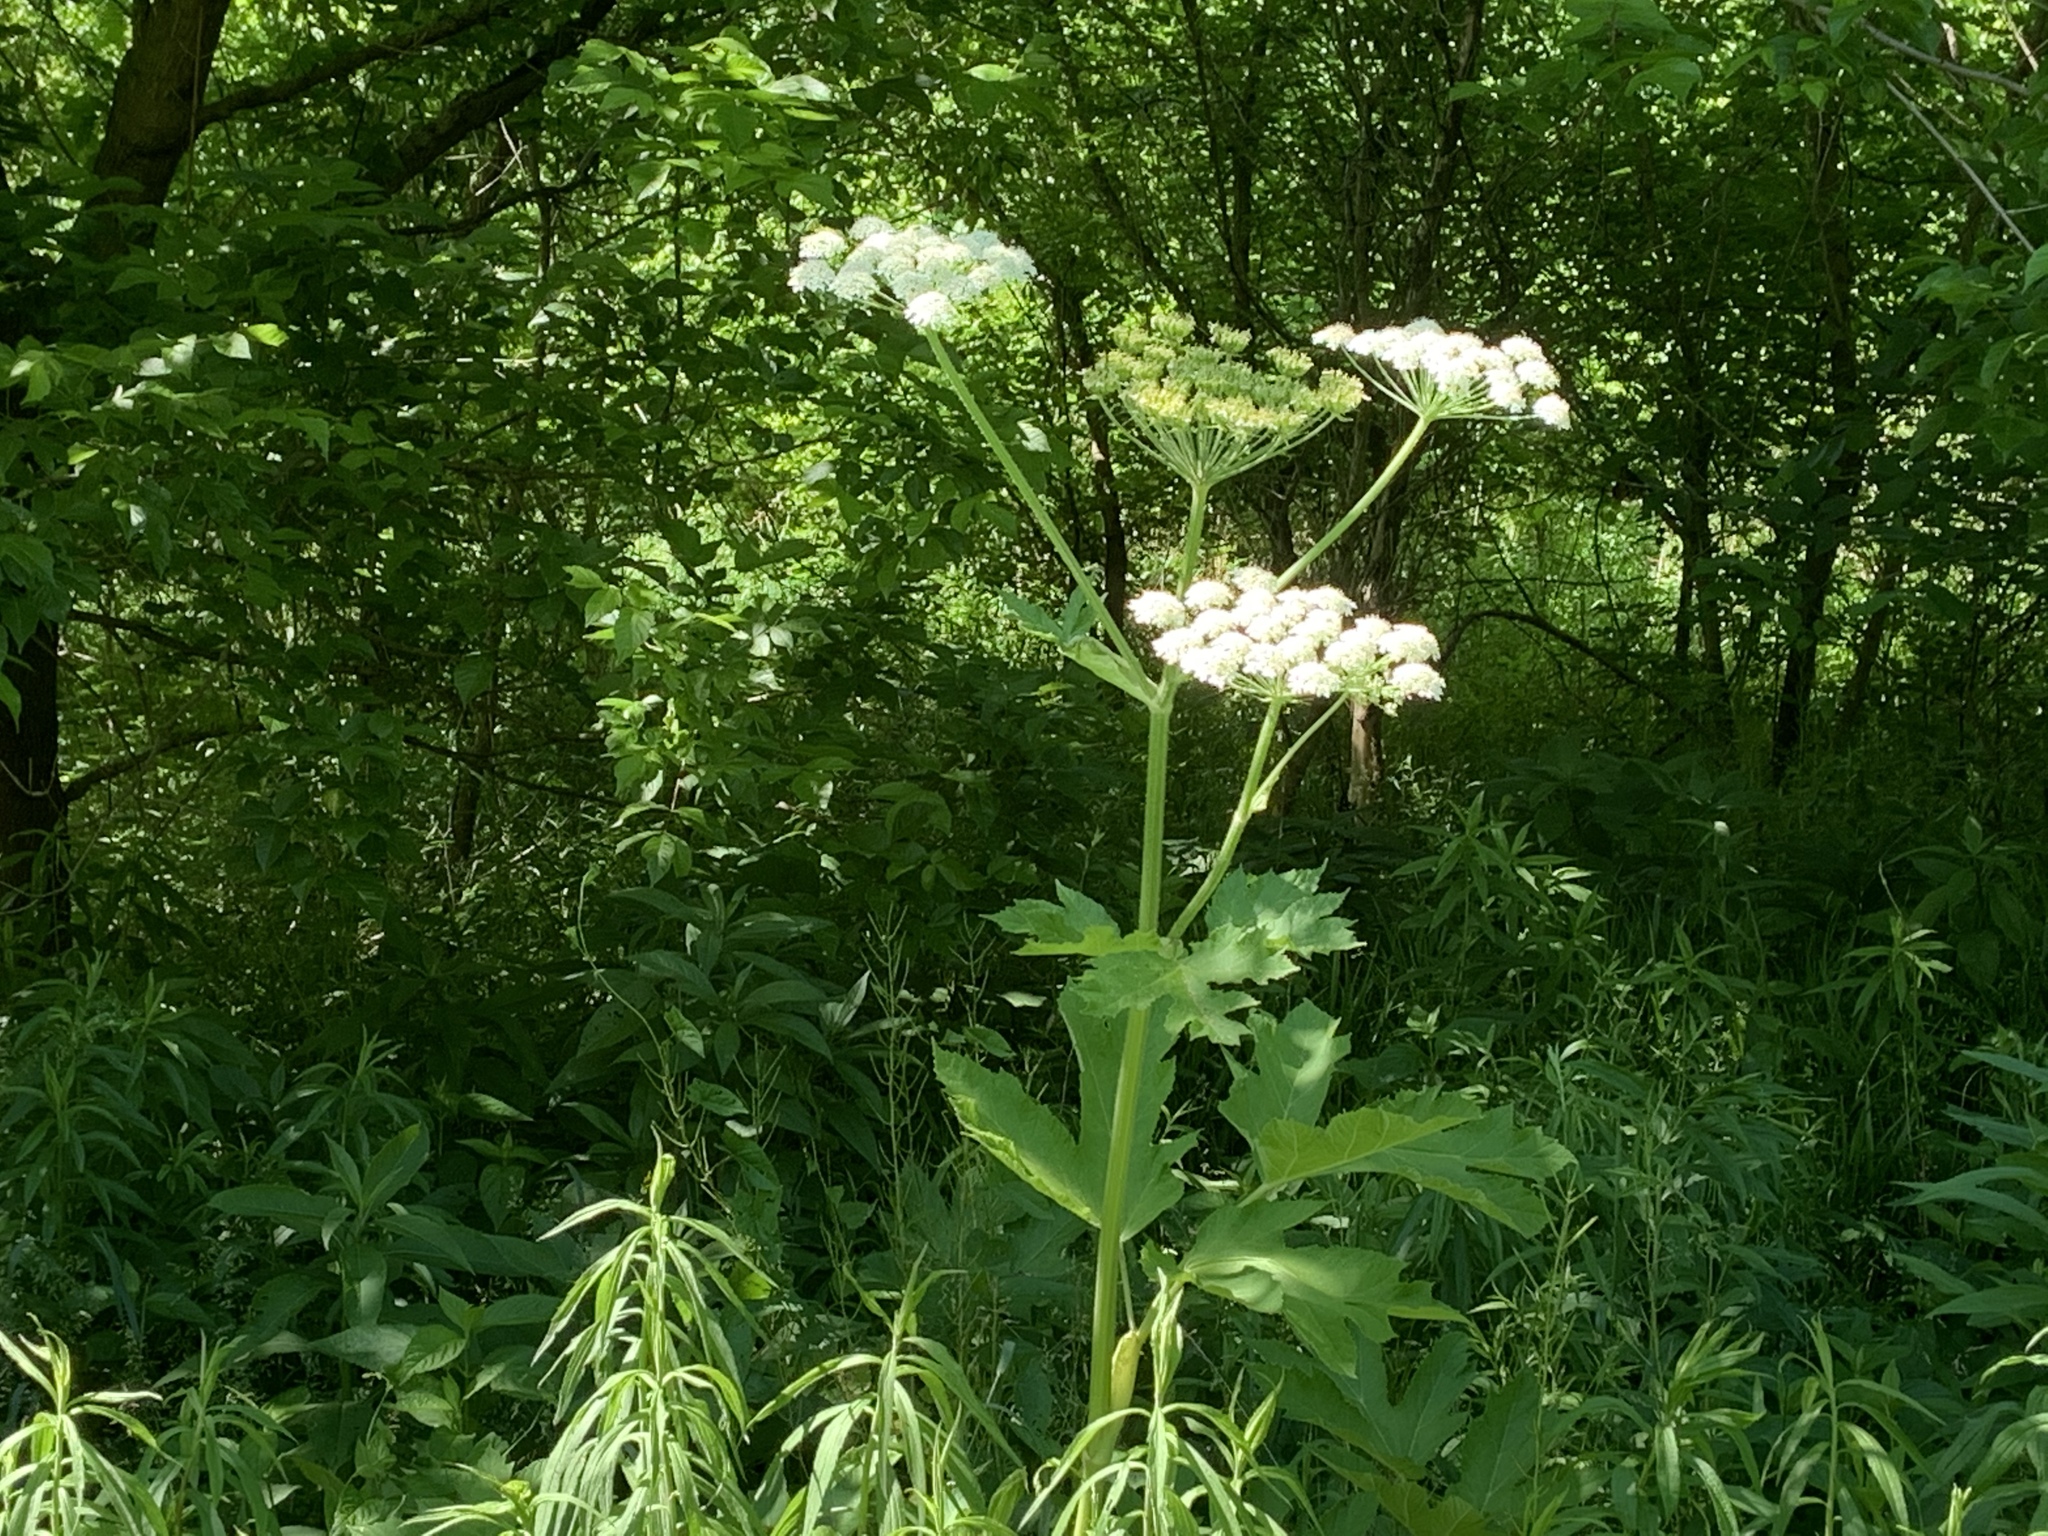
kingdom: Plantae
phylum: Tracheophyta
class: Magnoliopsida
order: Apiales
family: Apiaceae
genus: Heracleum
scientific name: Heracleum maximum
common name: American cow parsnip
